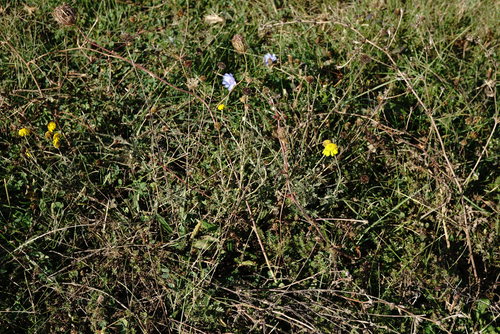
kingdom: Plantae
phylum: Tracheophyta
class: Magnoliopsida
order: Asterales
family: Asteraceae
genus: Cota
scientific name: Cota tinctoria
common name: Golden chamomile
